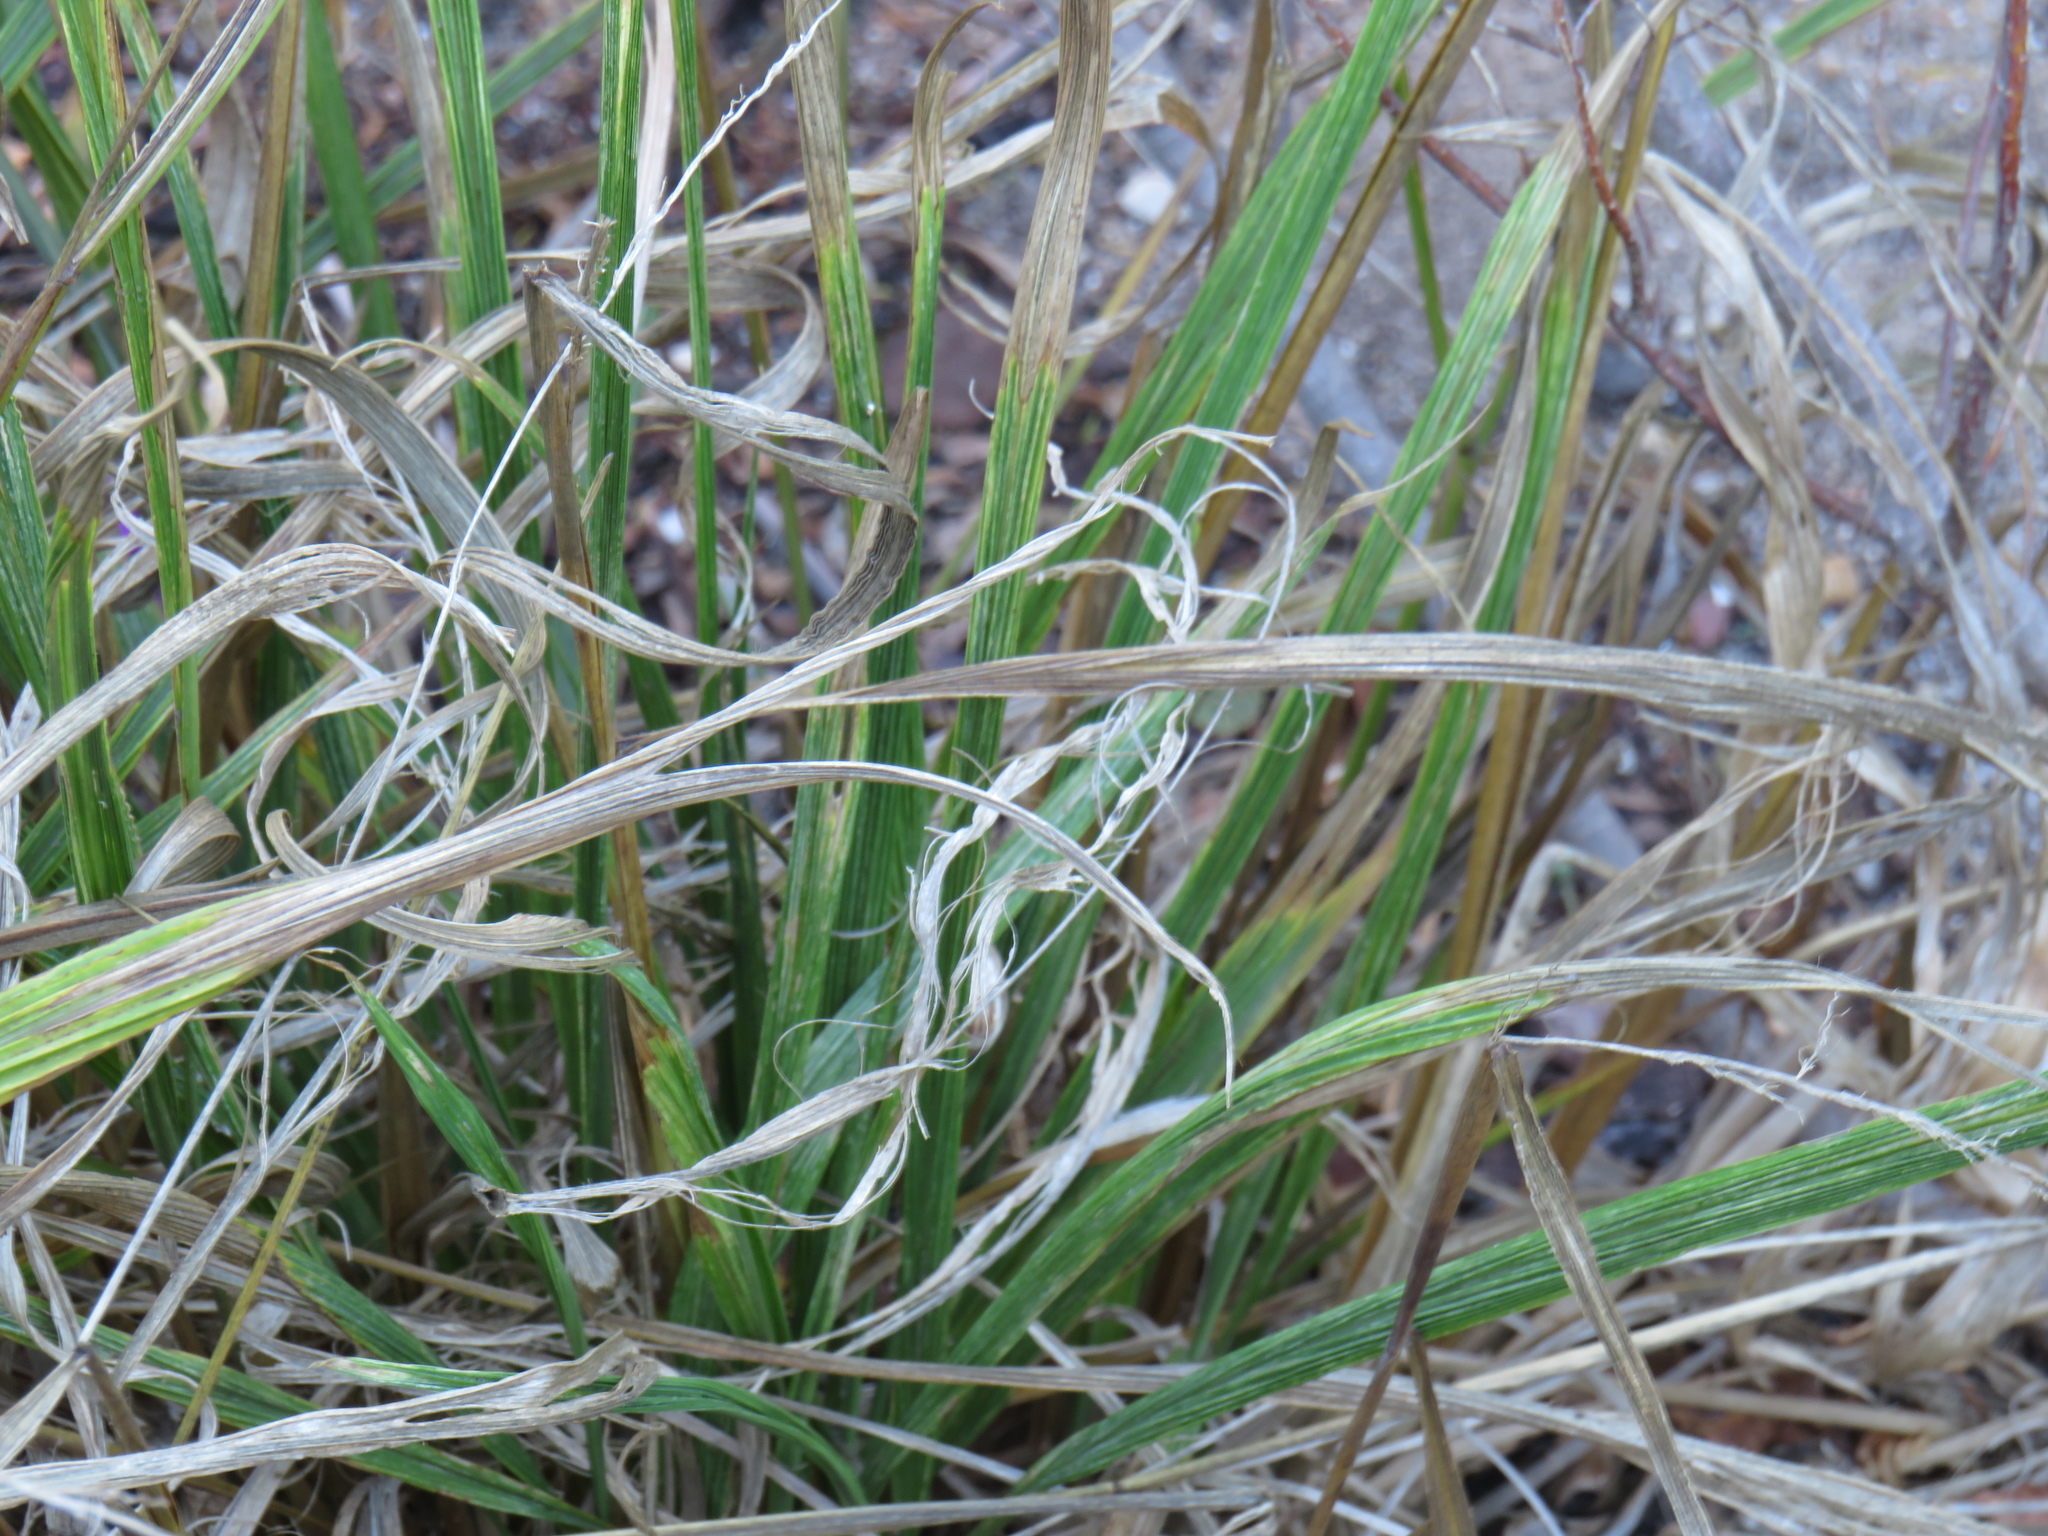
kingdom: Plantae
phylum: Tracheophyta
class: Liliopsida
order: Poales
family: Poaceae
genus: Setaria
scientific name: Setaria megaphylla
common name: Bigleaf bristlegrass
